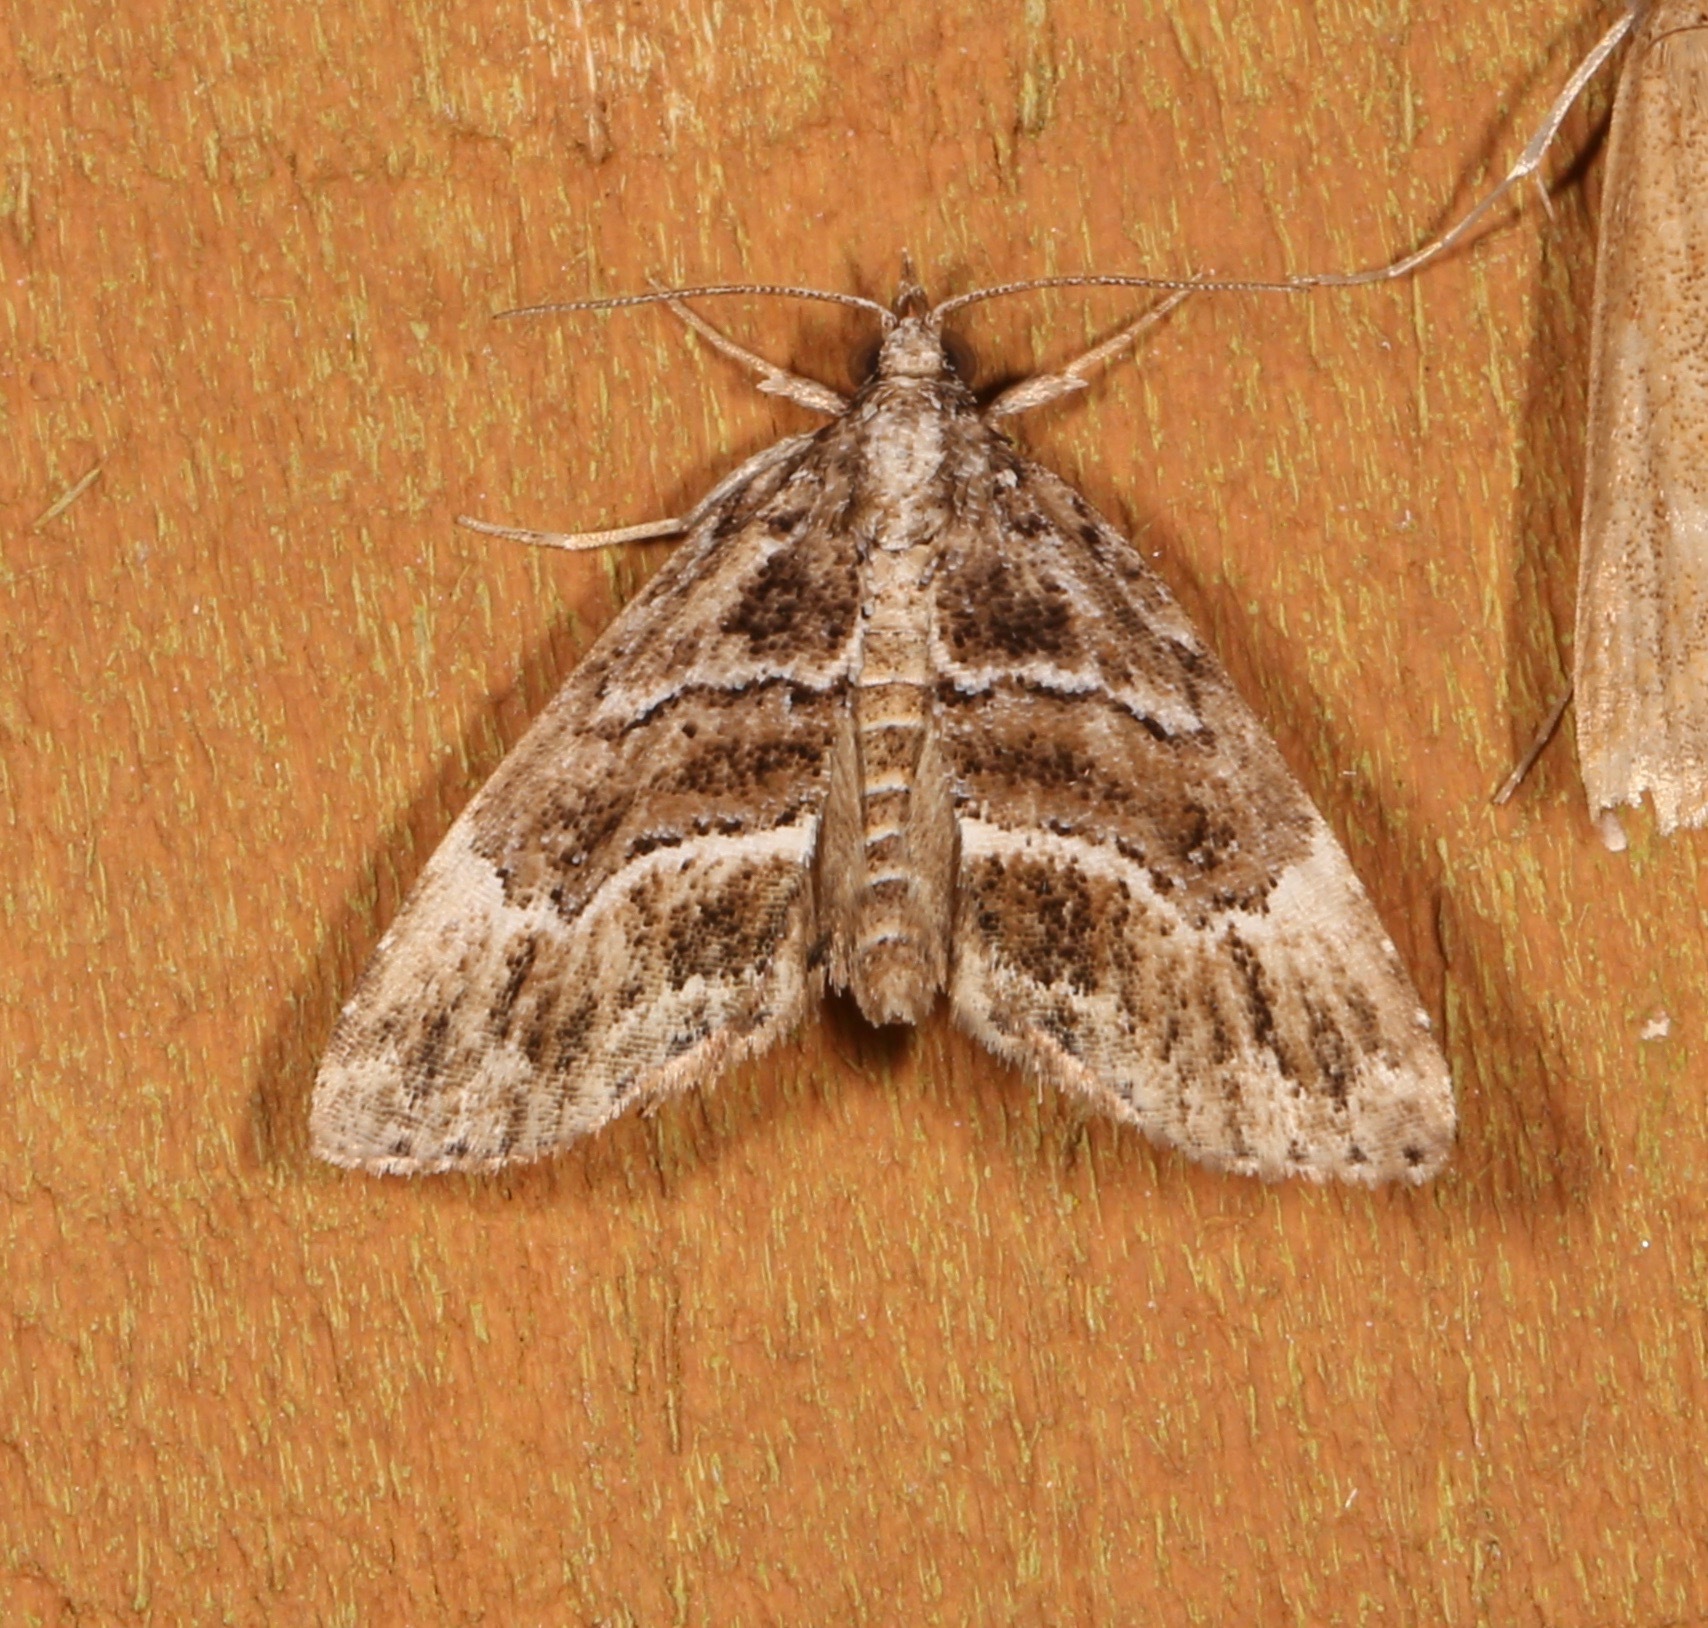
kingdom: Animalia
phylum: Arthropoda
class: Insecta
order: Lepidoptera
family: Erebidae
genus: Cutina
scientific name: Cutina arcuata
